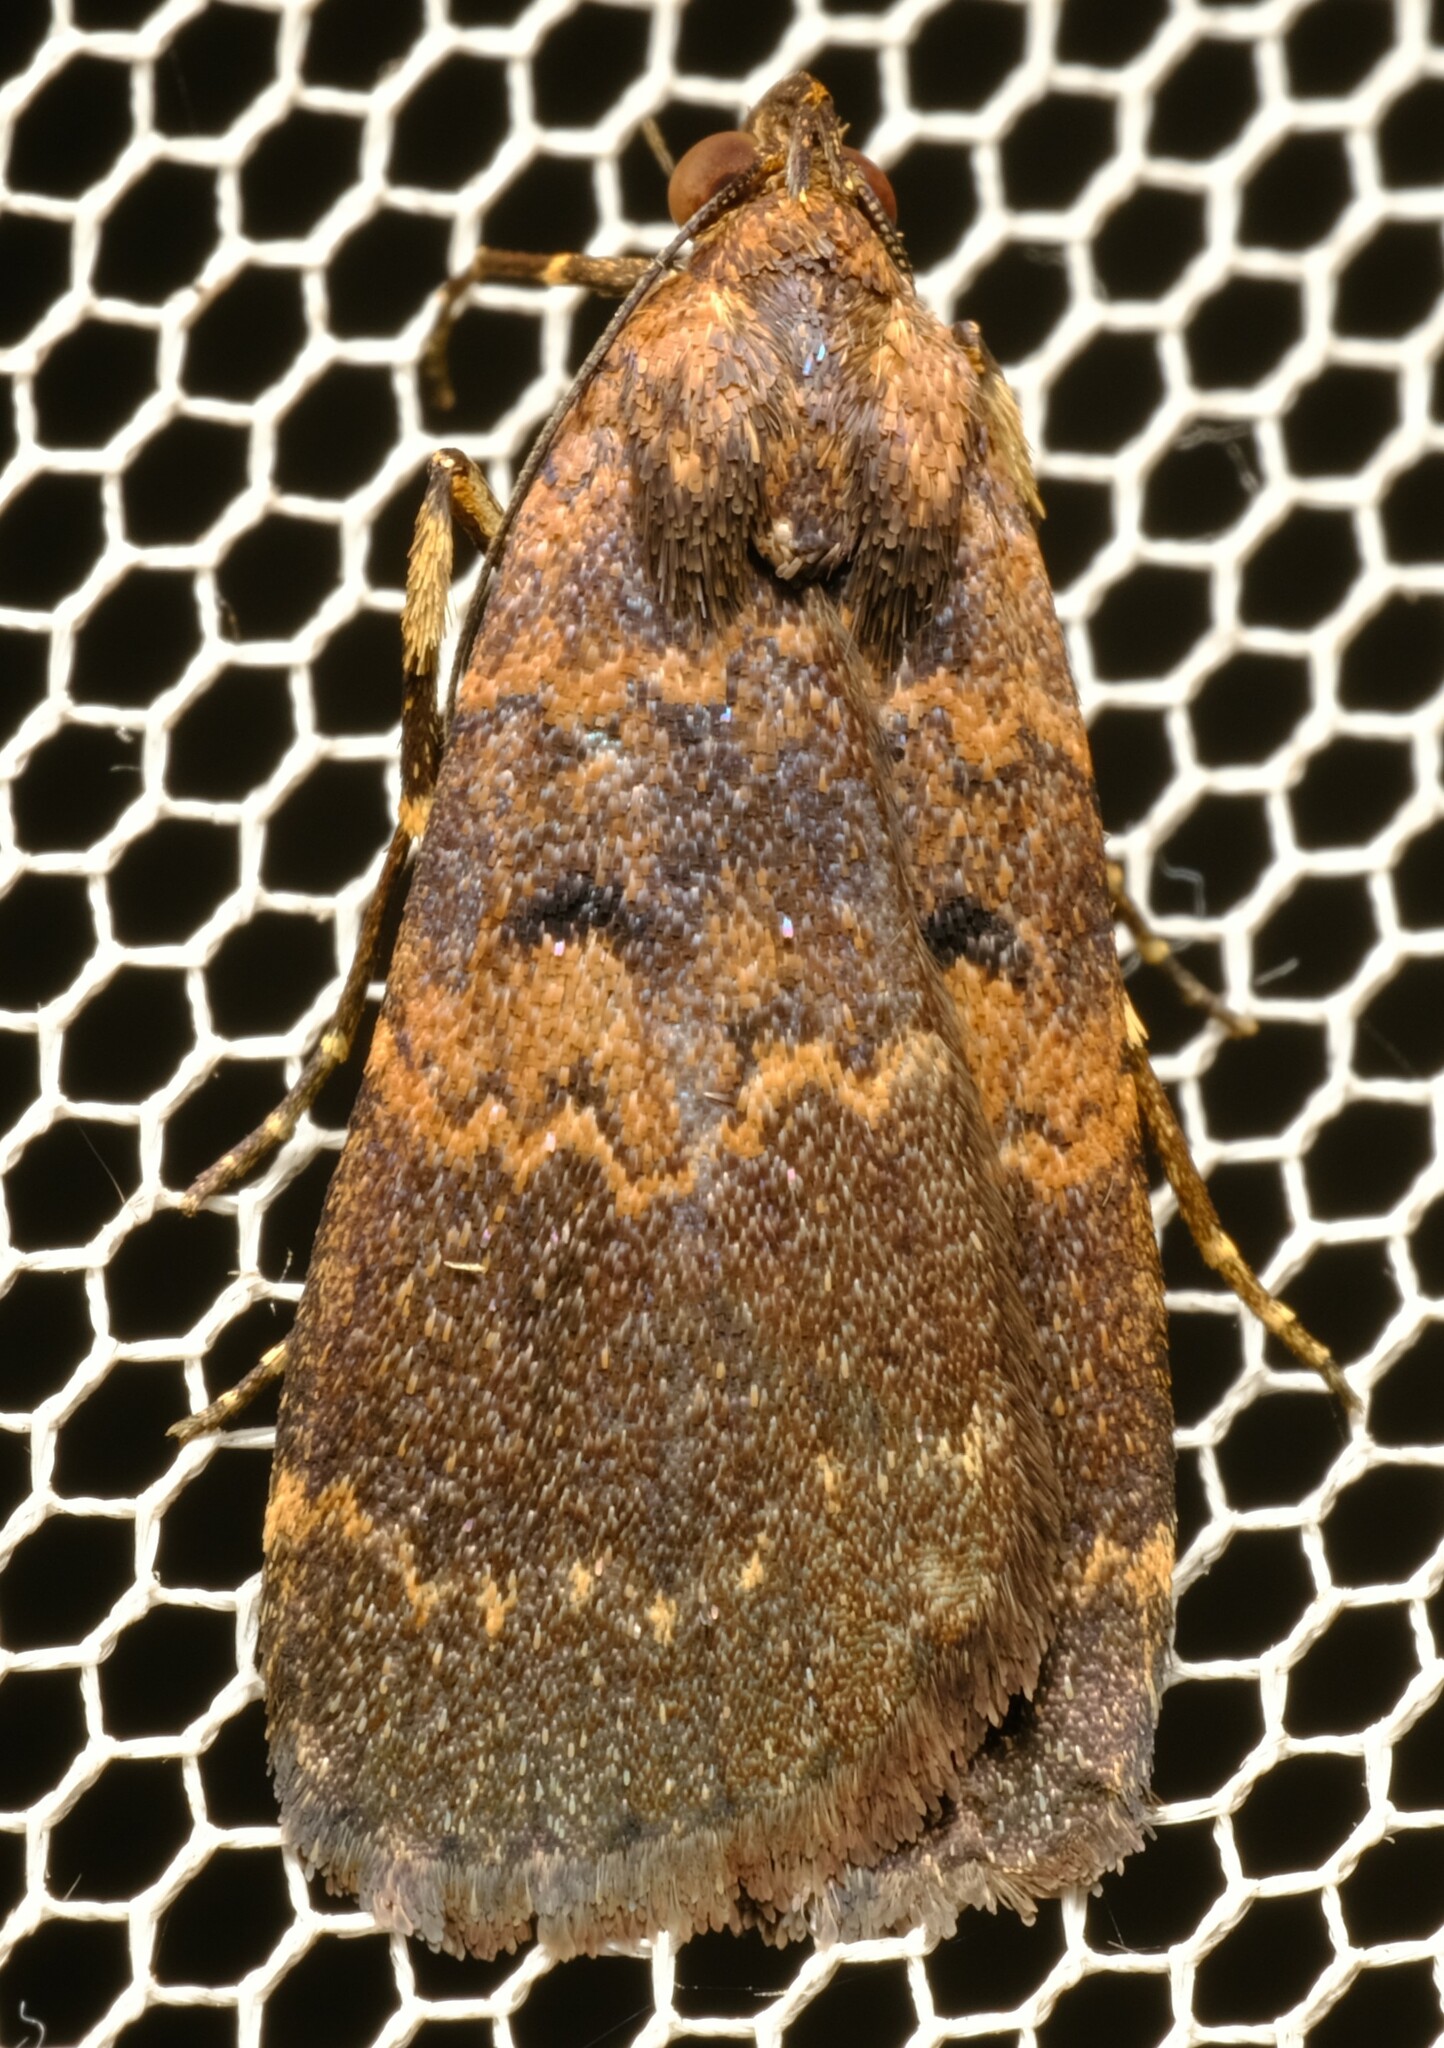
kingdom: Animalia
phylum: Arthropoda
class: Insecta
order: Lepidoptera
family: Erebidae
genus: Hydrillodes
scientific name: Hydrillodes funestalis
